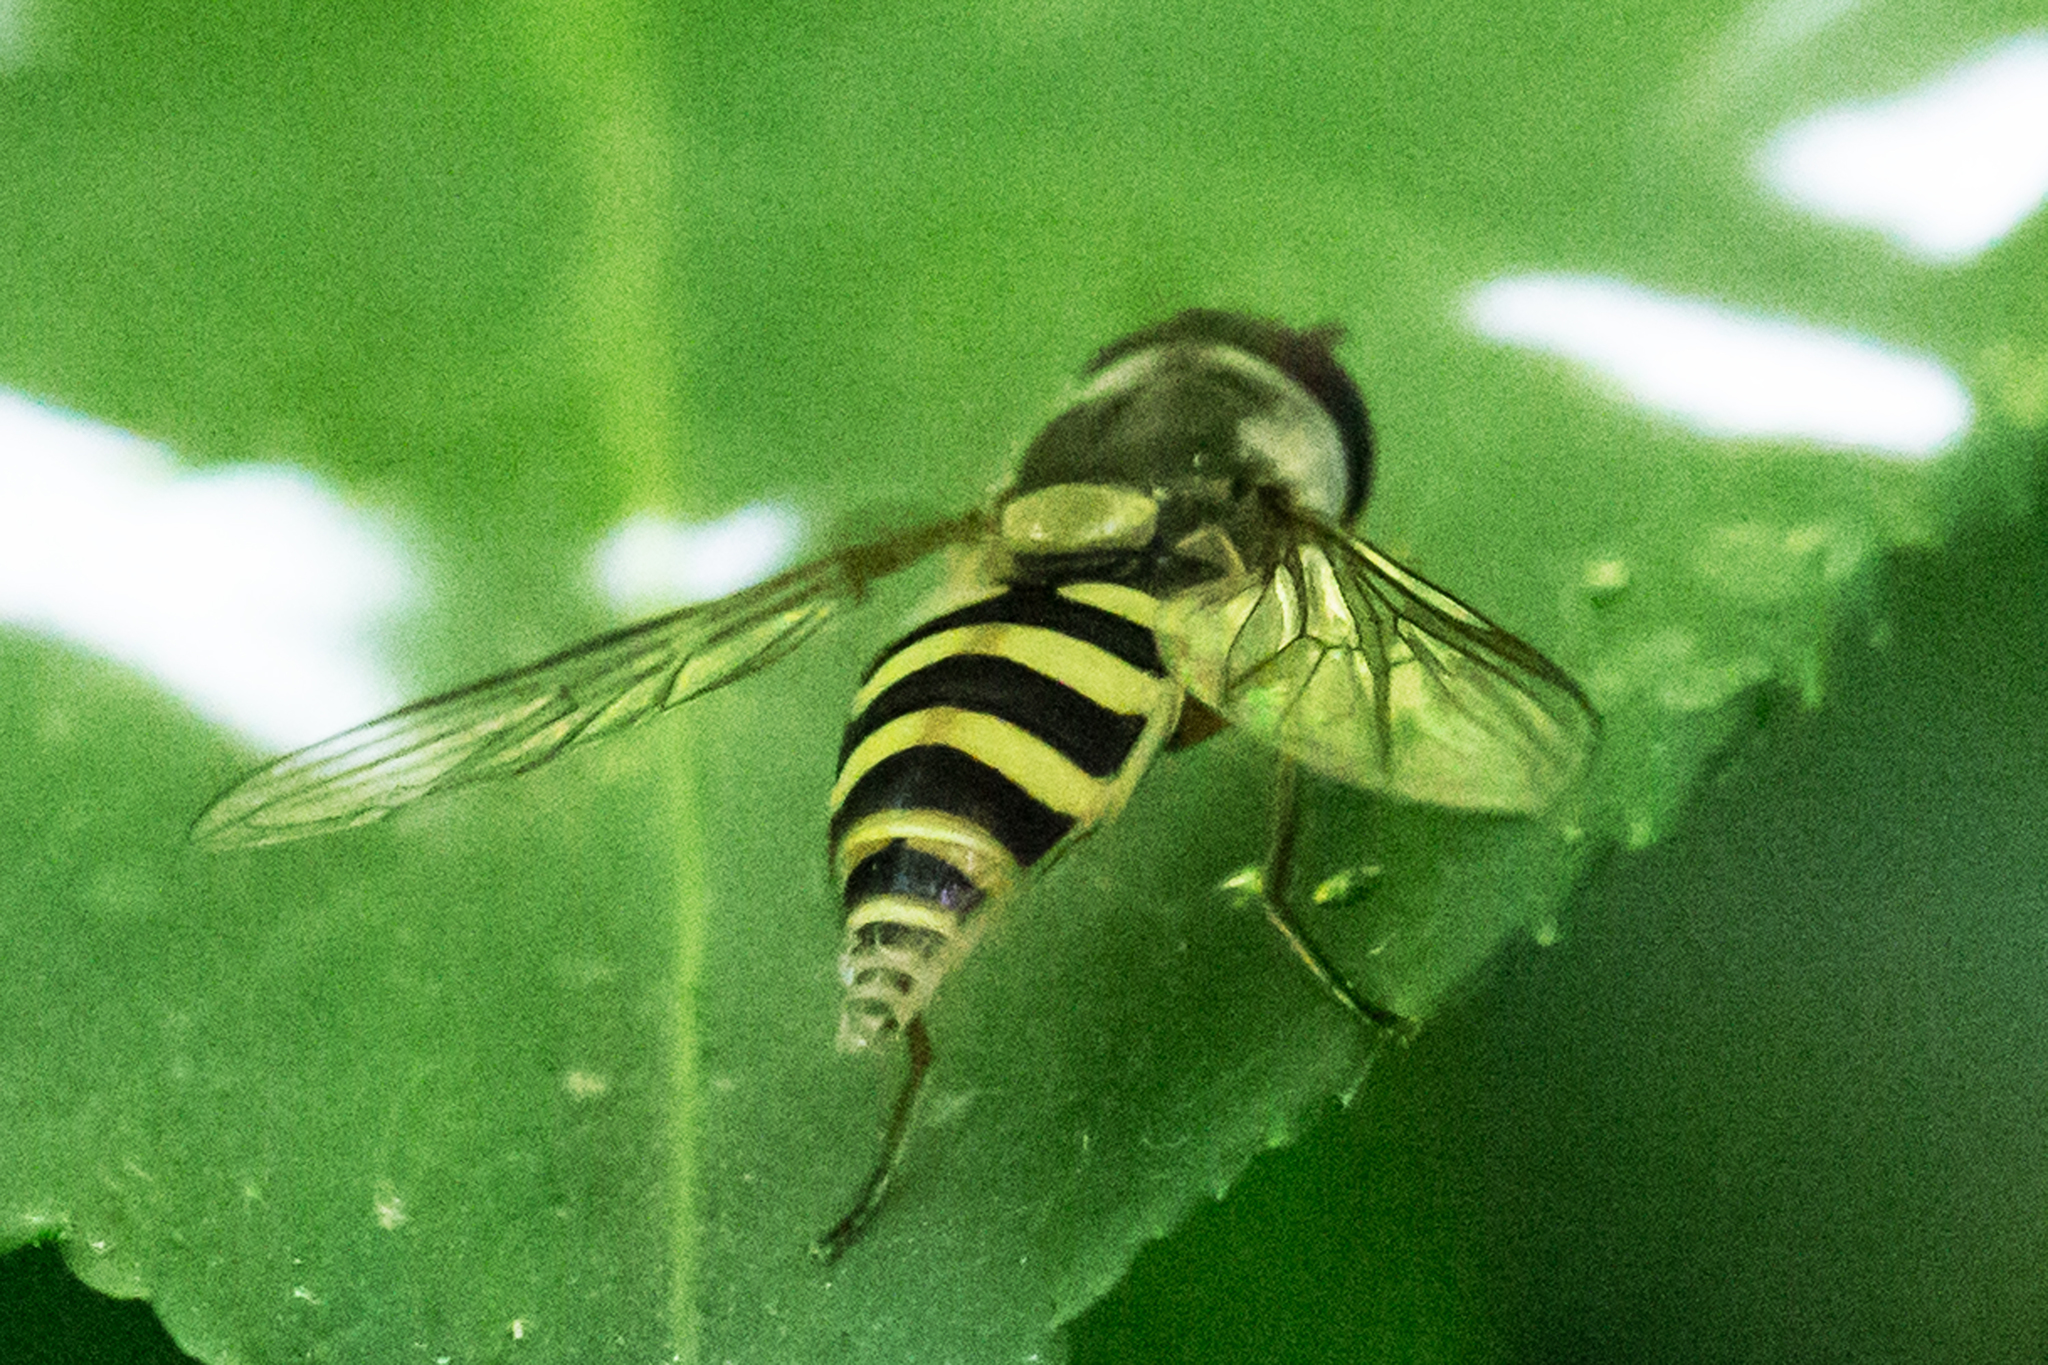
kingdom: Animalia
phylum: Arthropoda
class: Insecta
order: Diptera
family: Syrphidae
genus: Syrphus
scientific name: Syrphus
